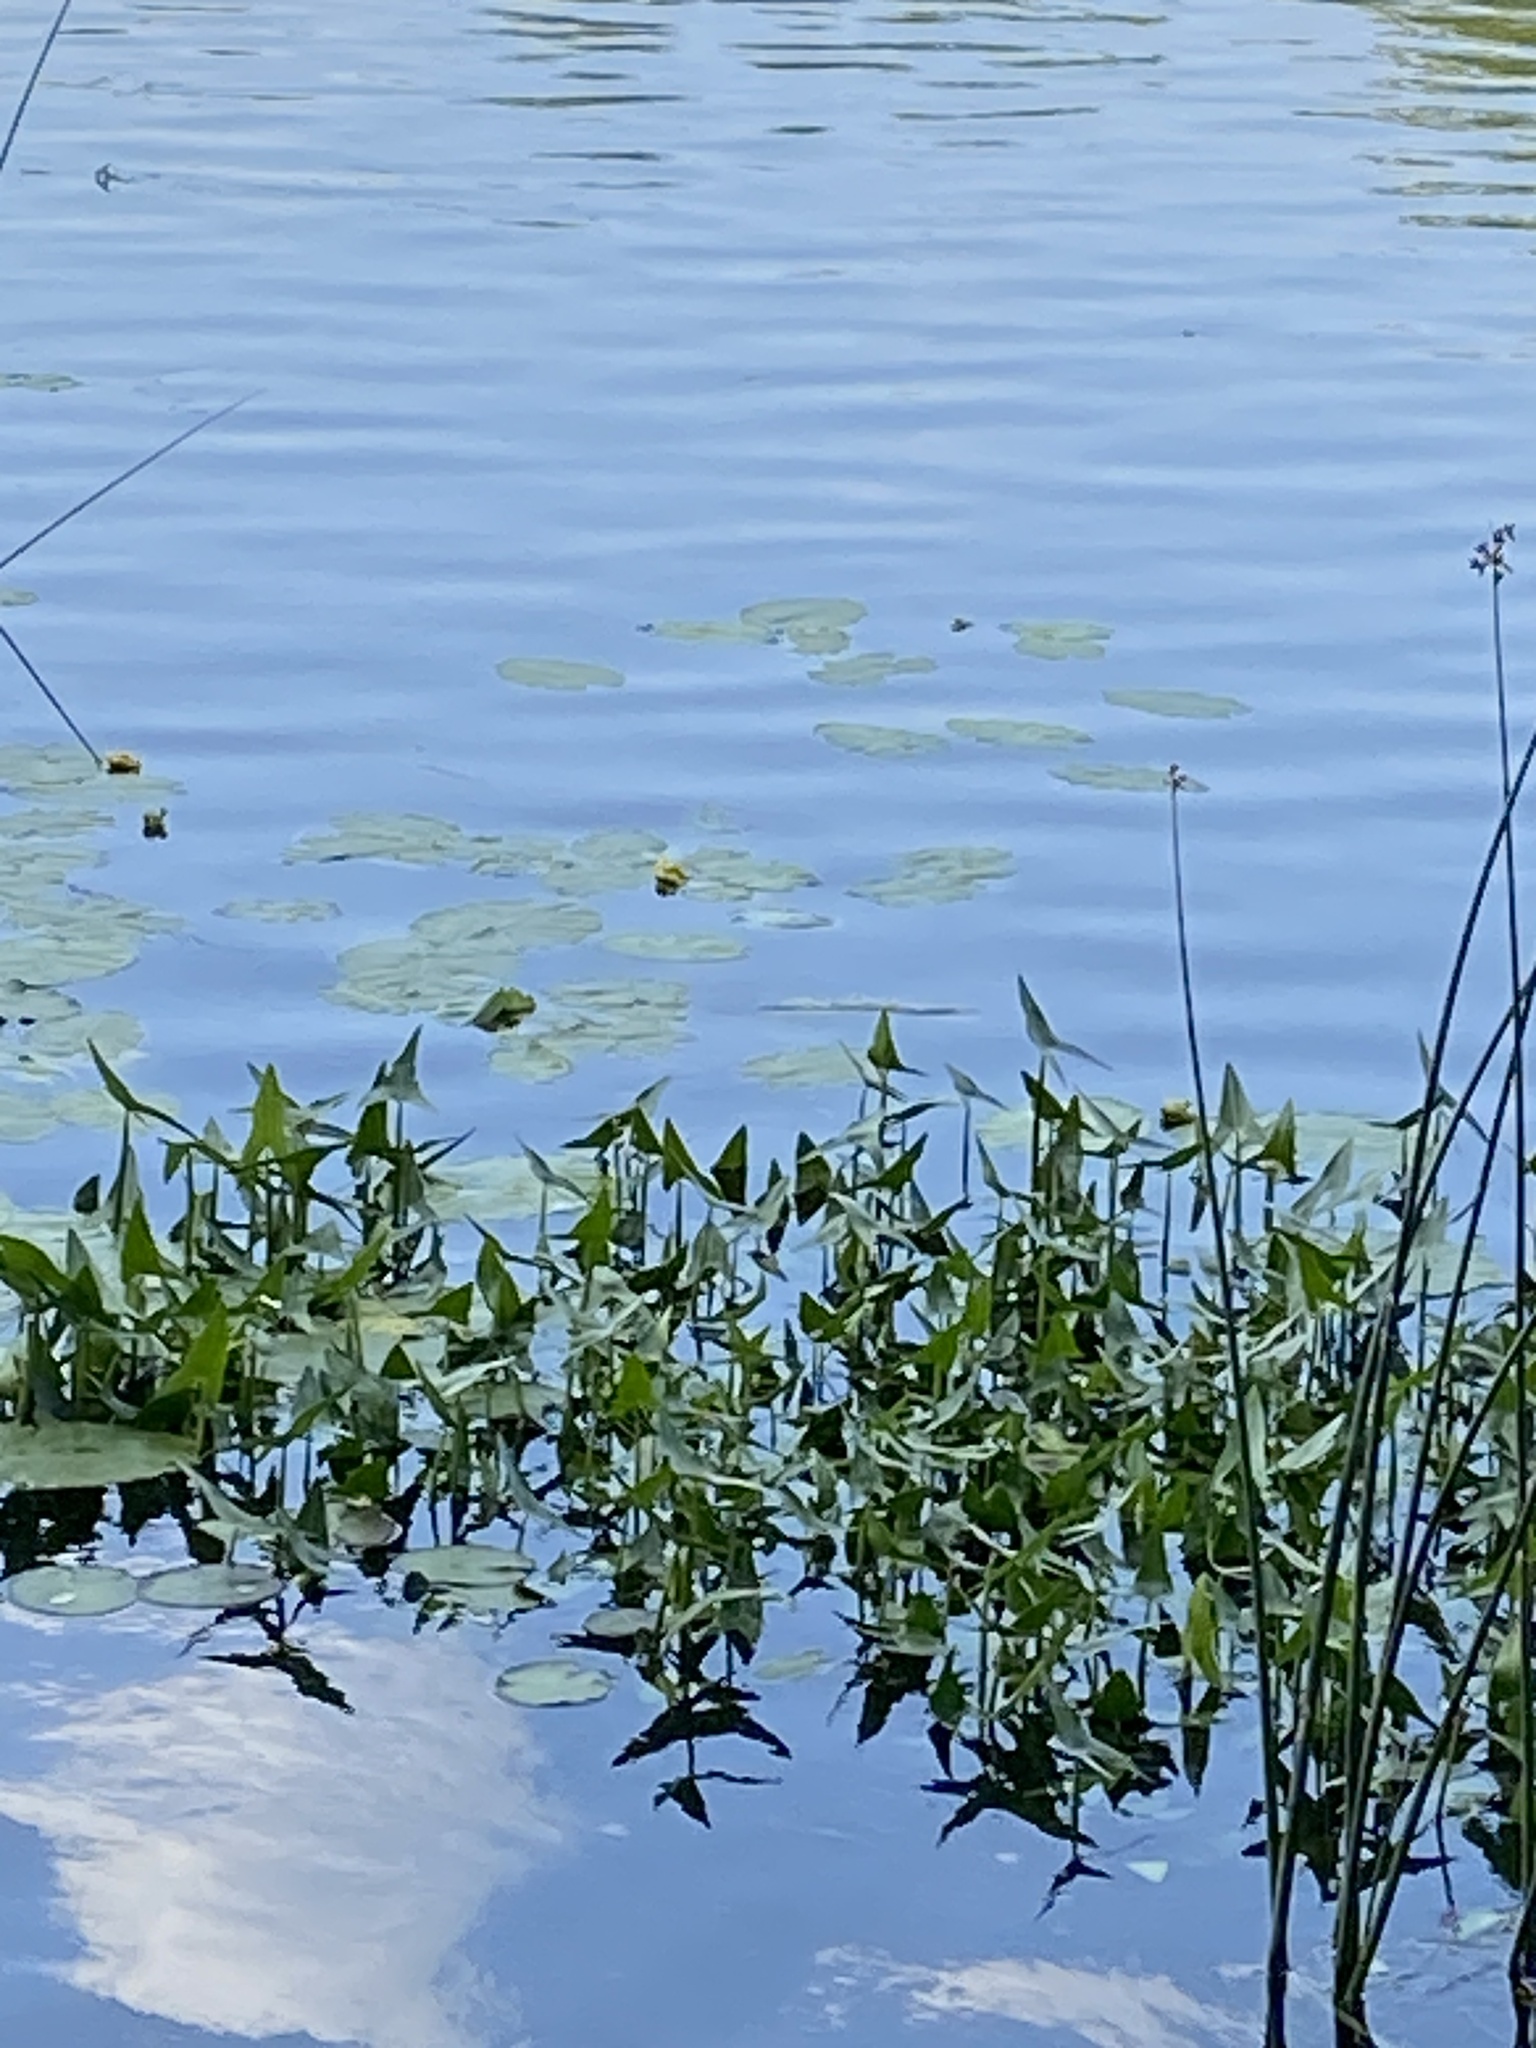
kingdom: Plantae
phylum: Tracheophyta
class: Liliopsida
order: Alismatales
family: Alismataceae
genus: Sagittaria
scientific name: Sagittaria sagittifolia
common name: Arrowhead
